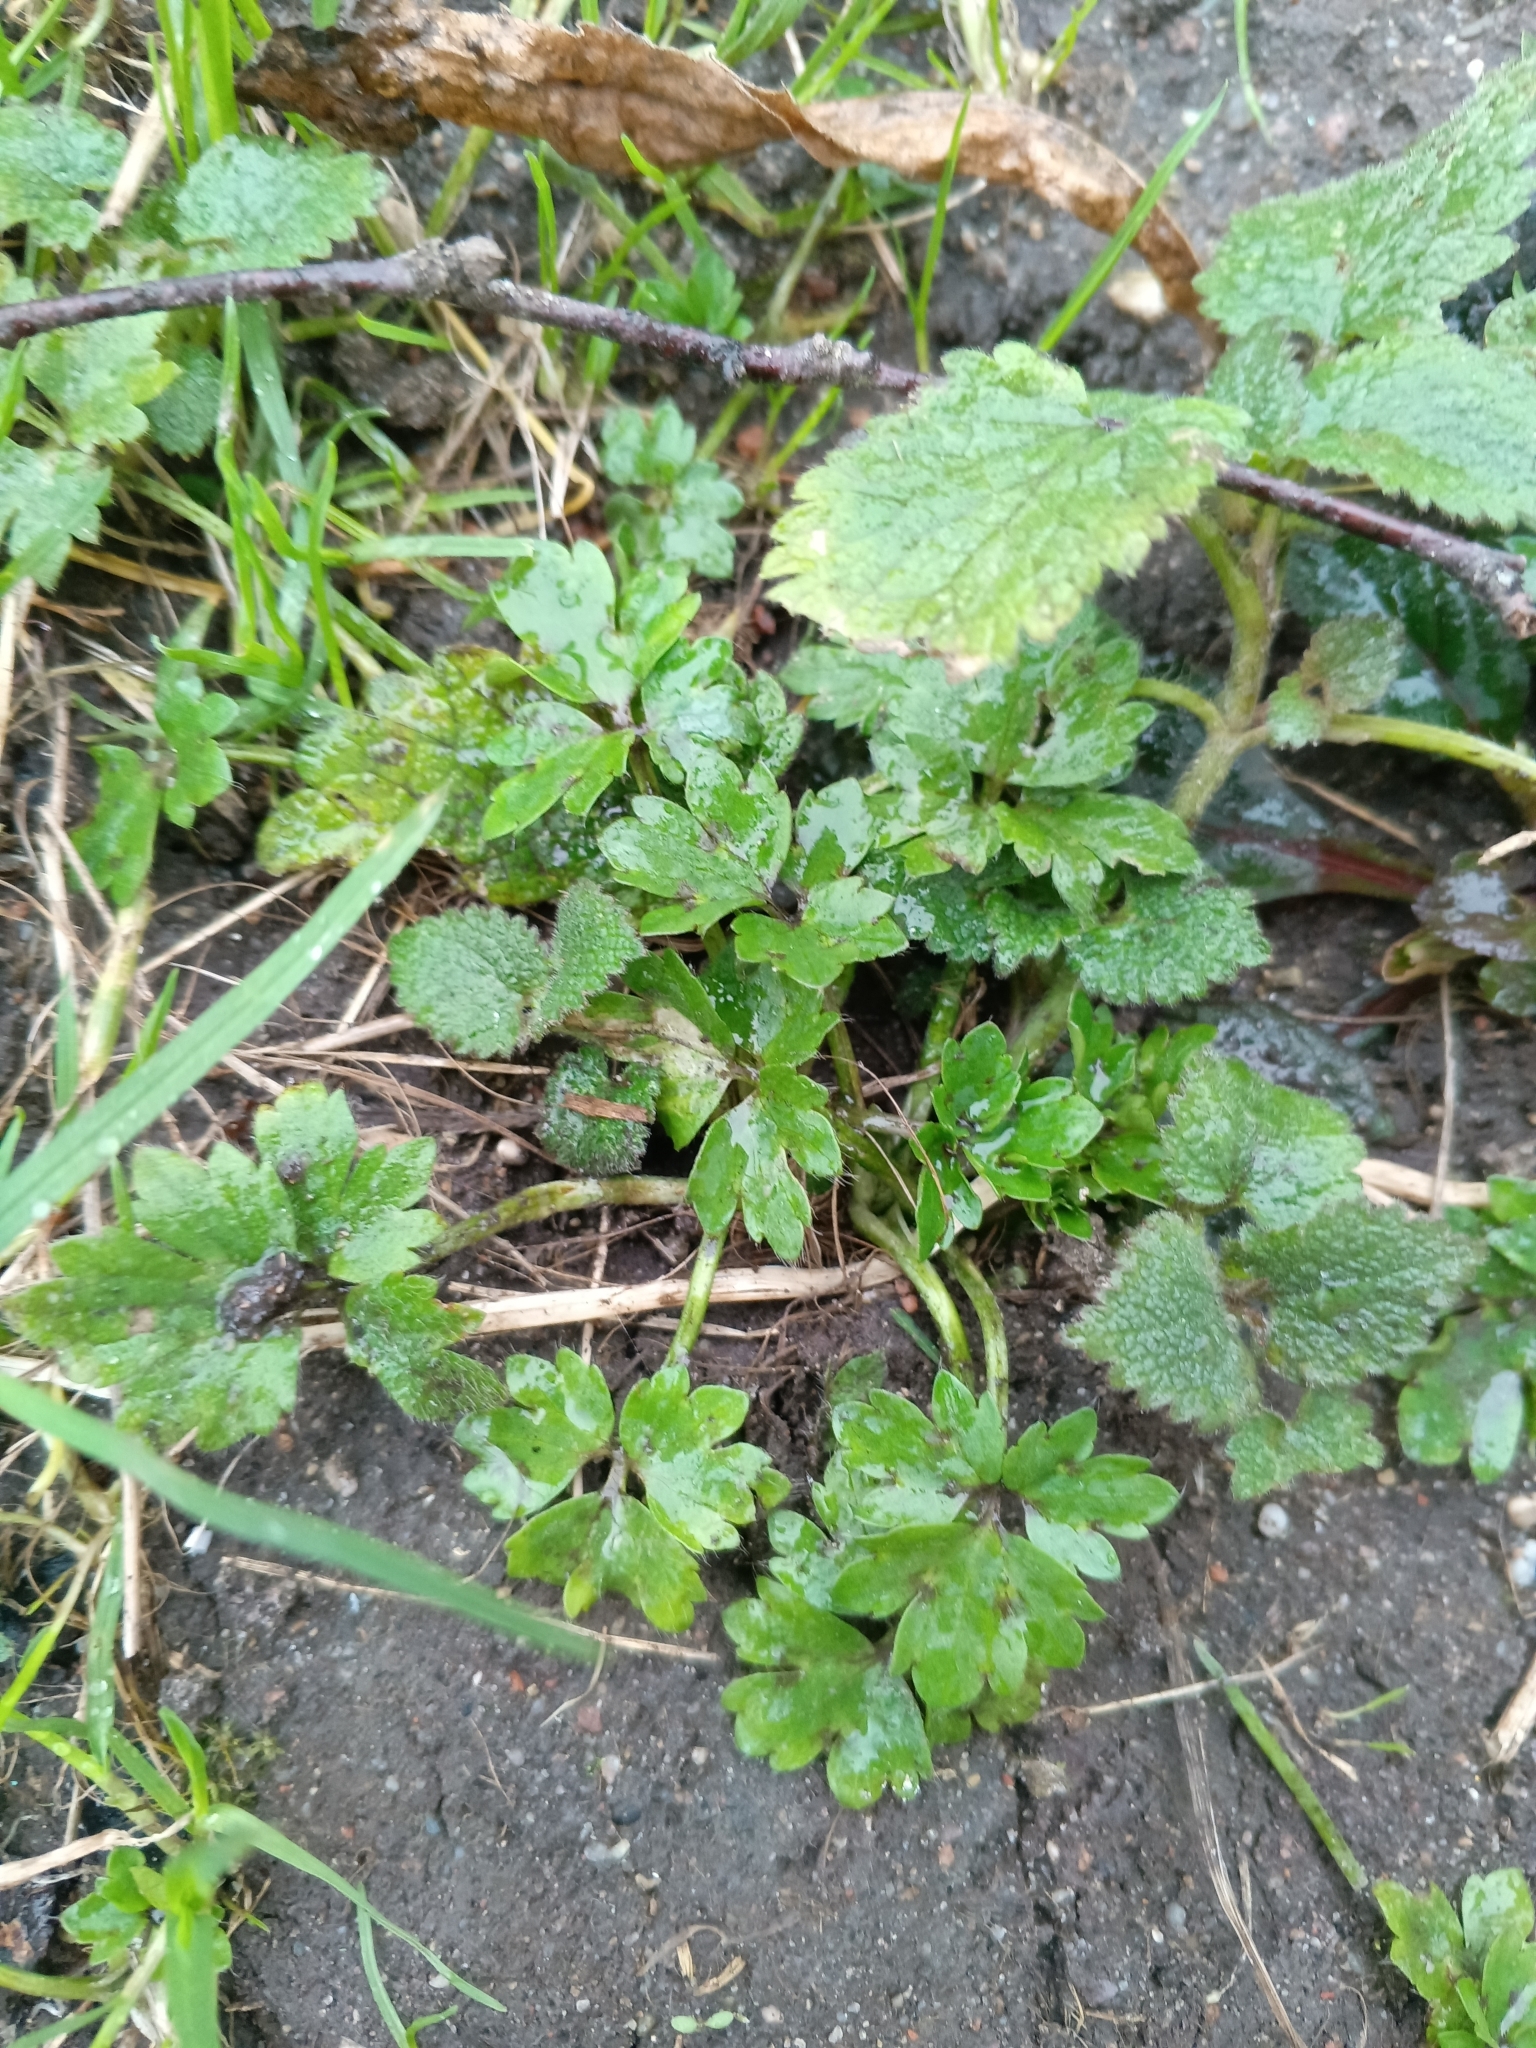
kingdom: Plantae
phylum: Tracheophyta
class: Magnoliopsida
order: Ranunculales
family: Ranunculaceae
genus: Ranunculus
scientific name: Ranunculus repens
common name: Creeping buttercup
